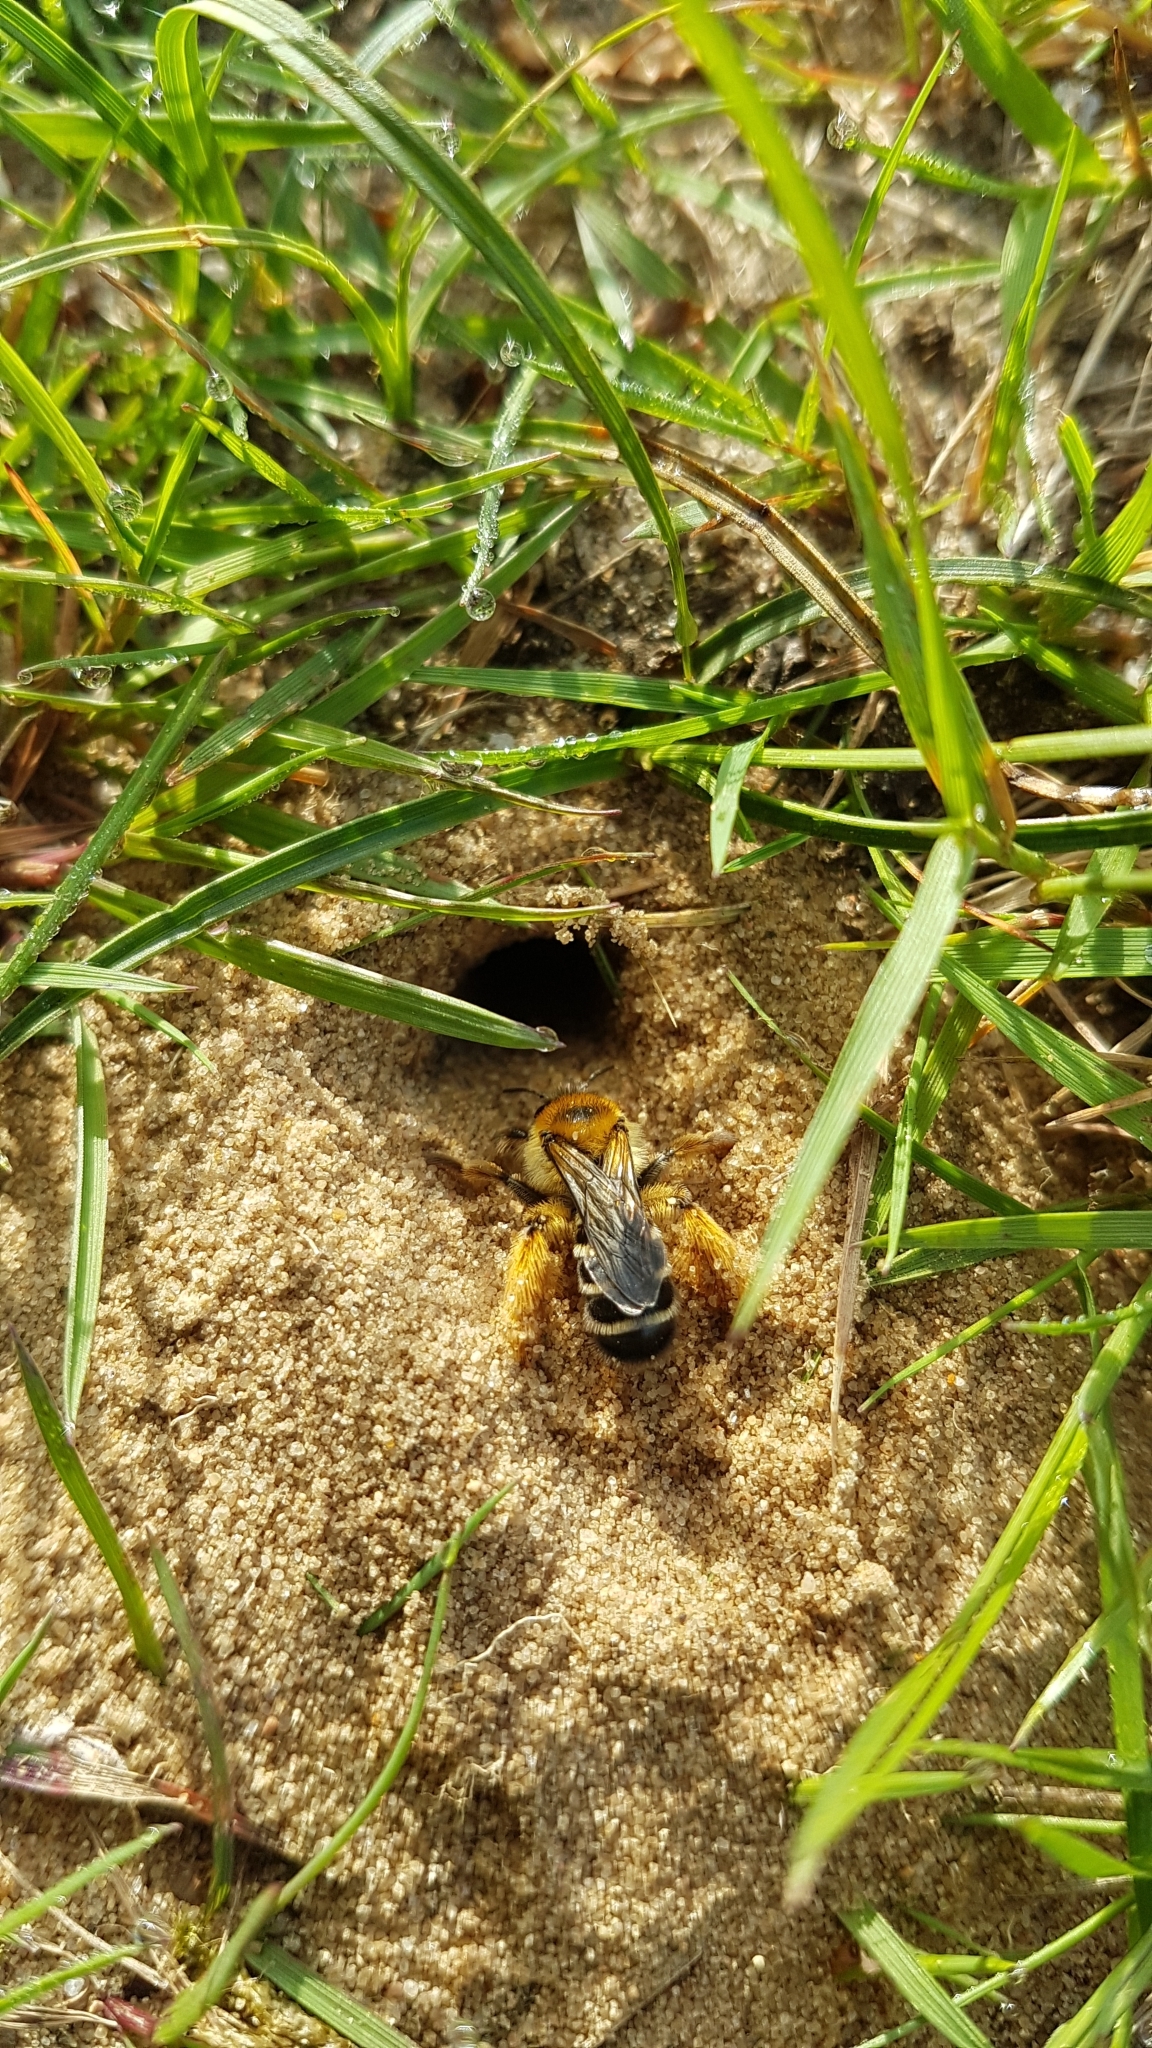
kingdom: Animalia
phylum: Arthropoda
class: Insecta
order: Hymenoptera
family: Melittidae
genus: Dasypoda
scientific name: Dasypoda hirtipes
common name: Pantaloon bee
